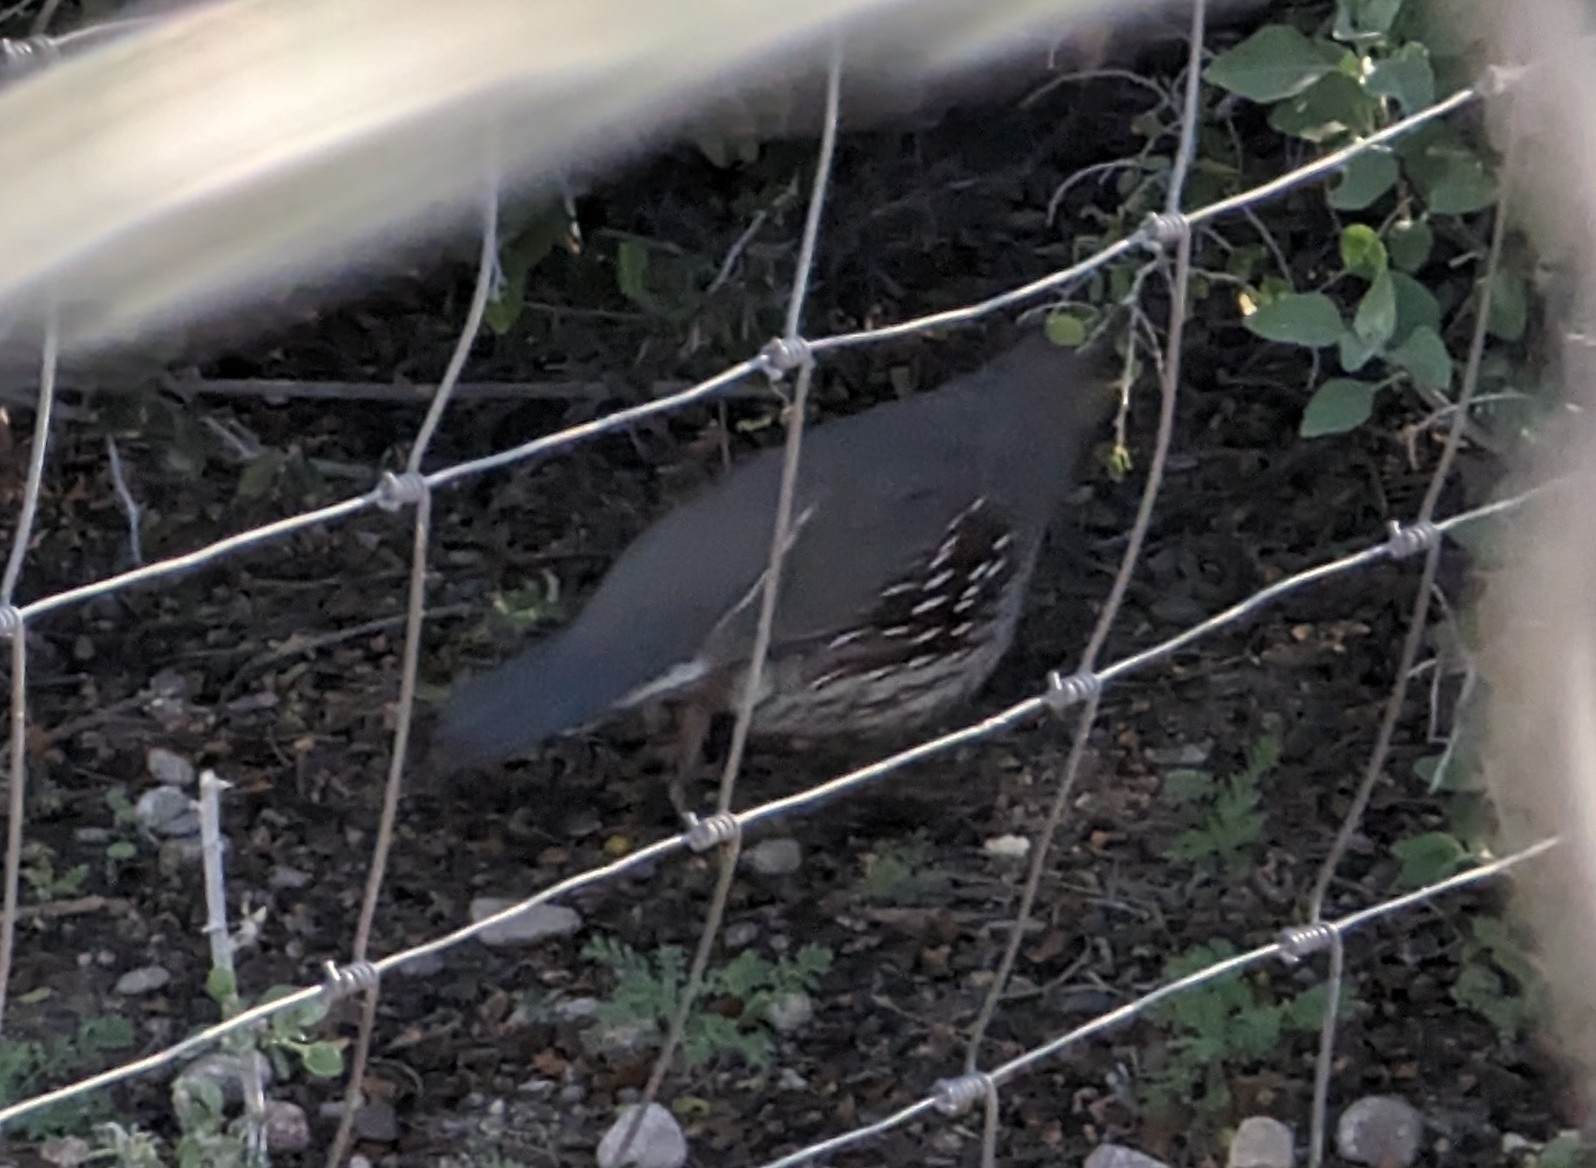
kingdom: Animalia
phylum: Chordata
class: Aves
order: Galliformes
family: Odontophoridae
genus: Callipepla
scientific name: Callipepla gambelii
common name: Gambel's quail
